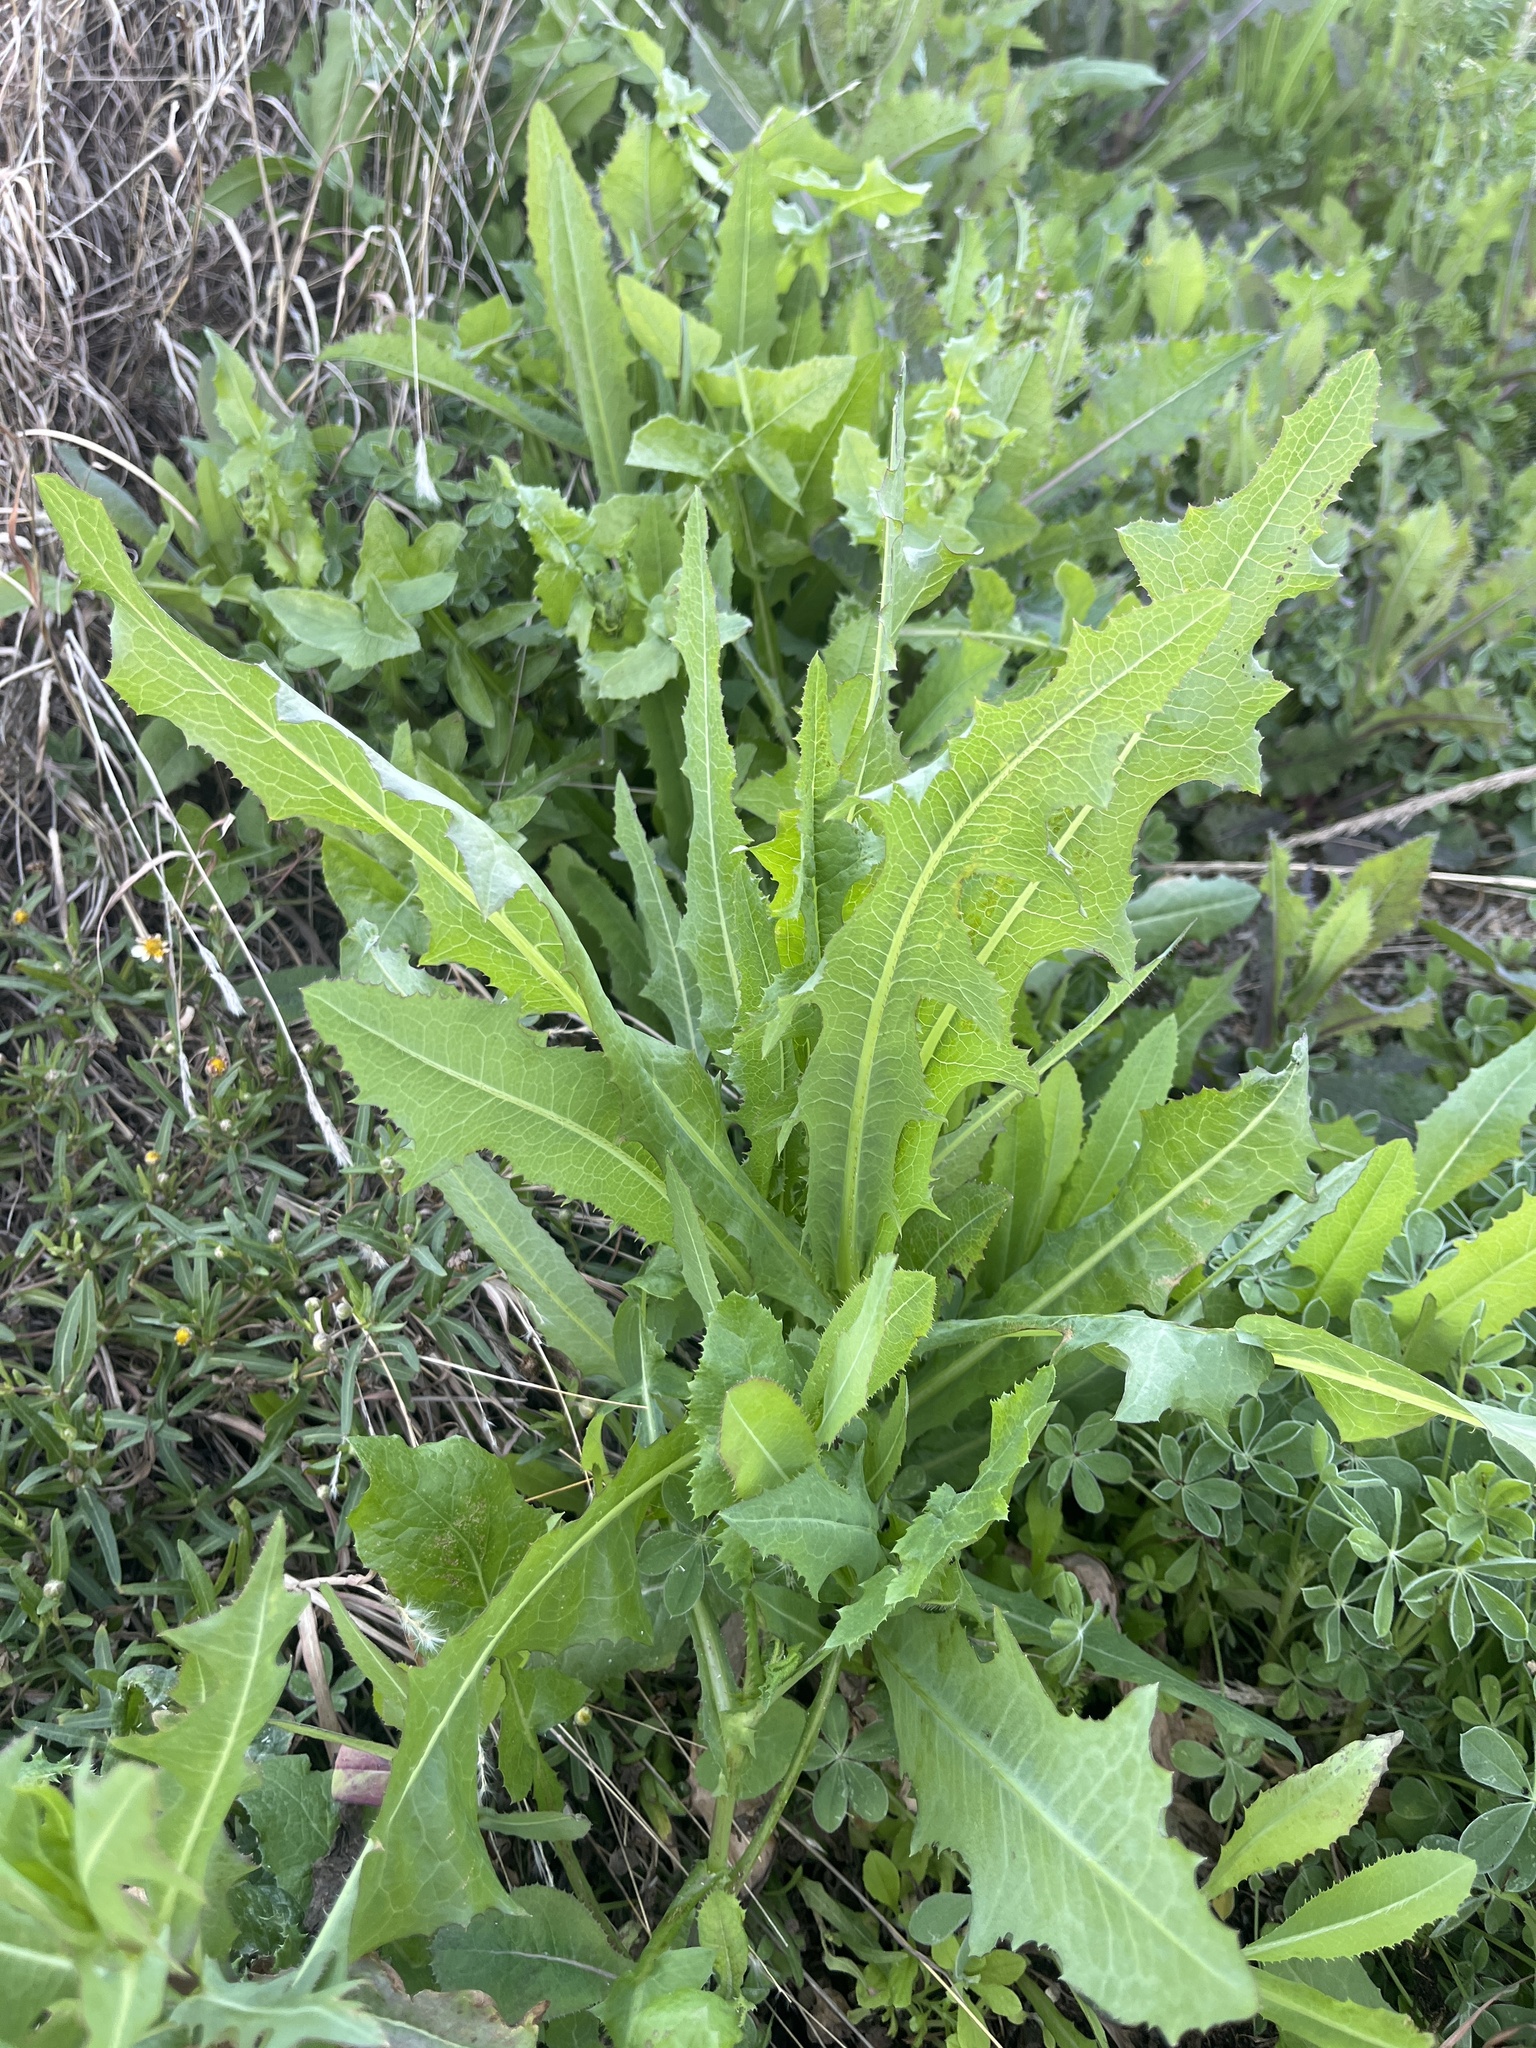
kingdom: Plantae
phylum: Tracheophyta
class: Magnoliopsida
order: Asterales
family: Asteraceae
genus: Lactuca
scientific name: Lactuca serriola
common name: Prickly lettuce
